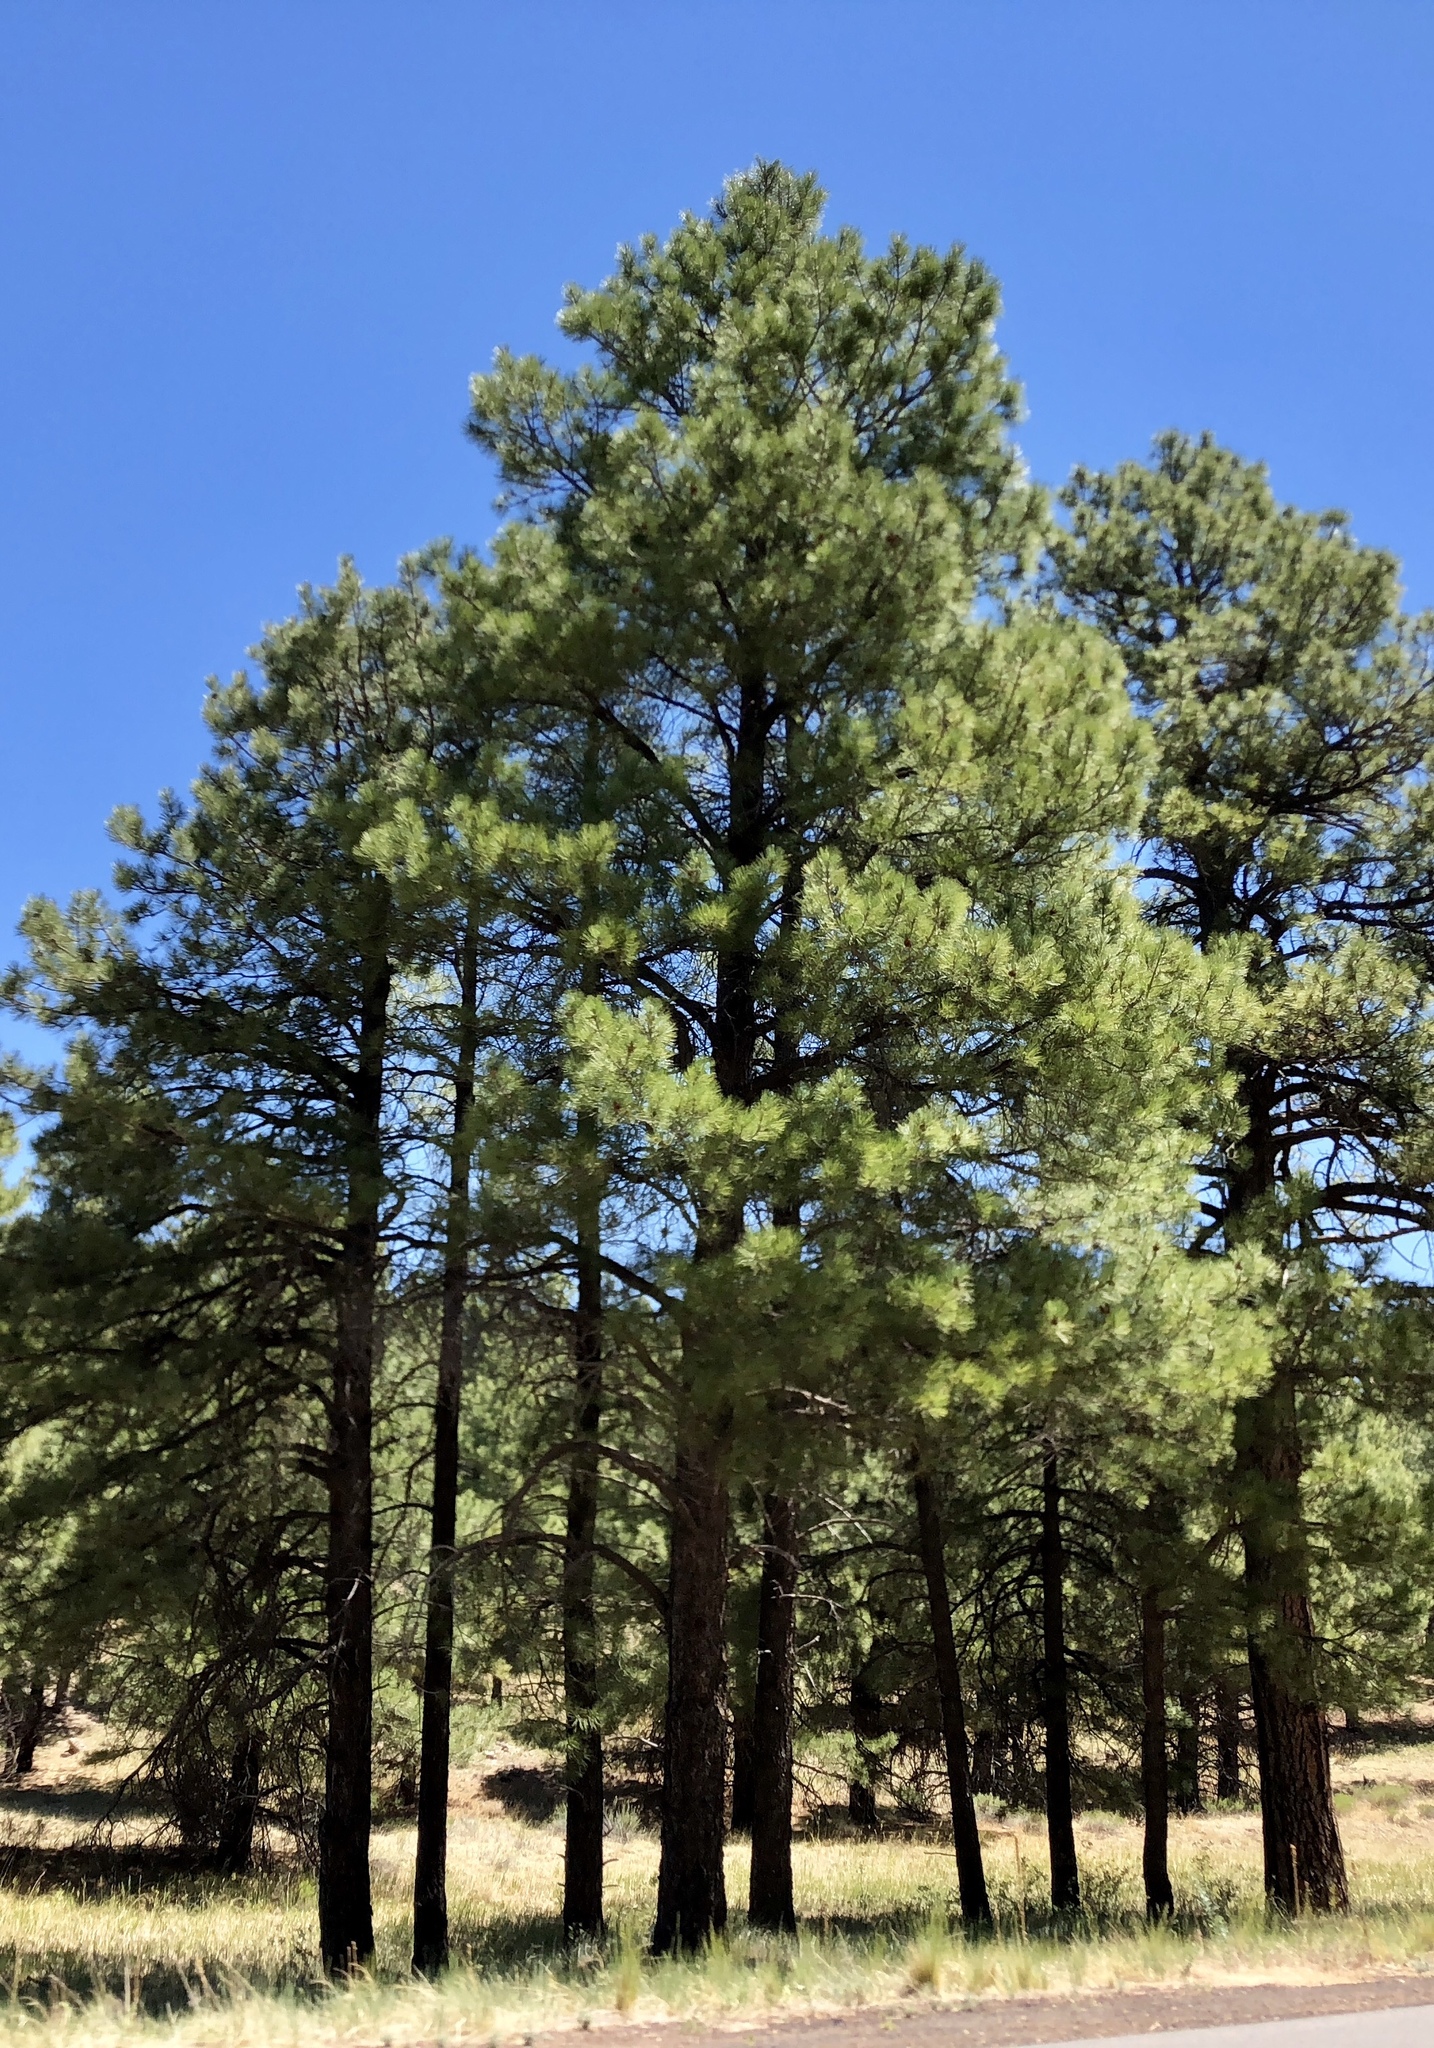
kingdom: Plantae
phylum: Tracheophyta
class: Pinopsida
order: Pinales
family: Pinaceae
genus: Pinus
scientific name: Pinus ponderosa
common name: Western yellow-pine
